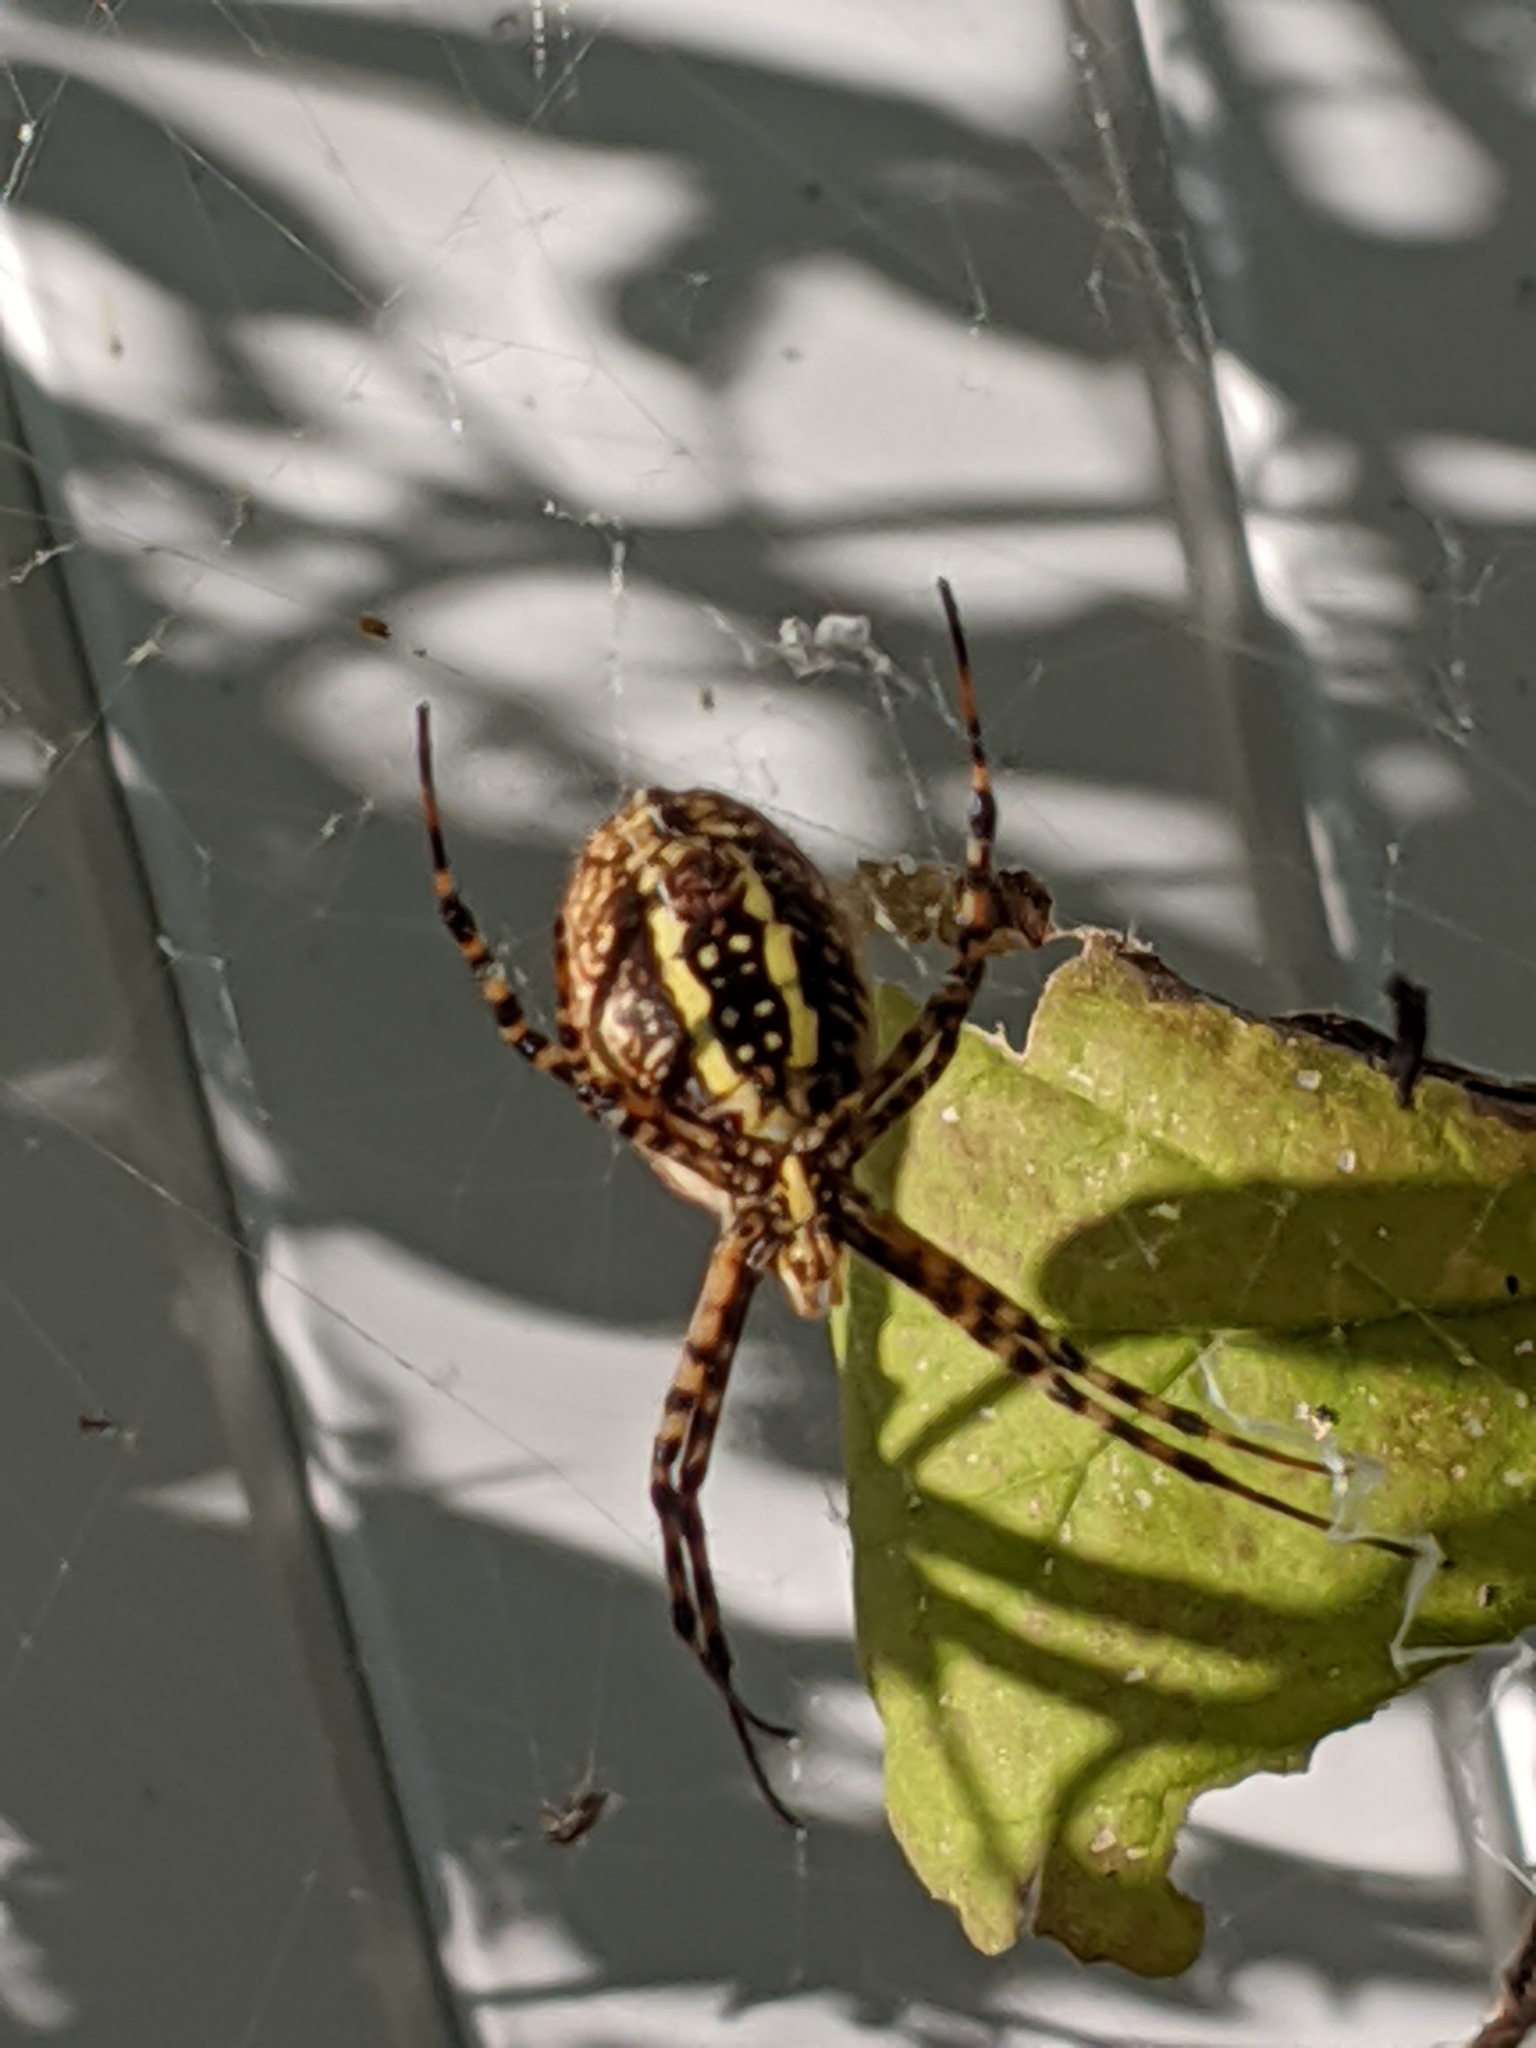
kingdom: Animalia
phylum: Arthropoda
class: Arachnida
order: Araneae
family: Araneidae
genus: Argiope
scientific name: Argiope trifasciata
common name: Banded garden spider
